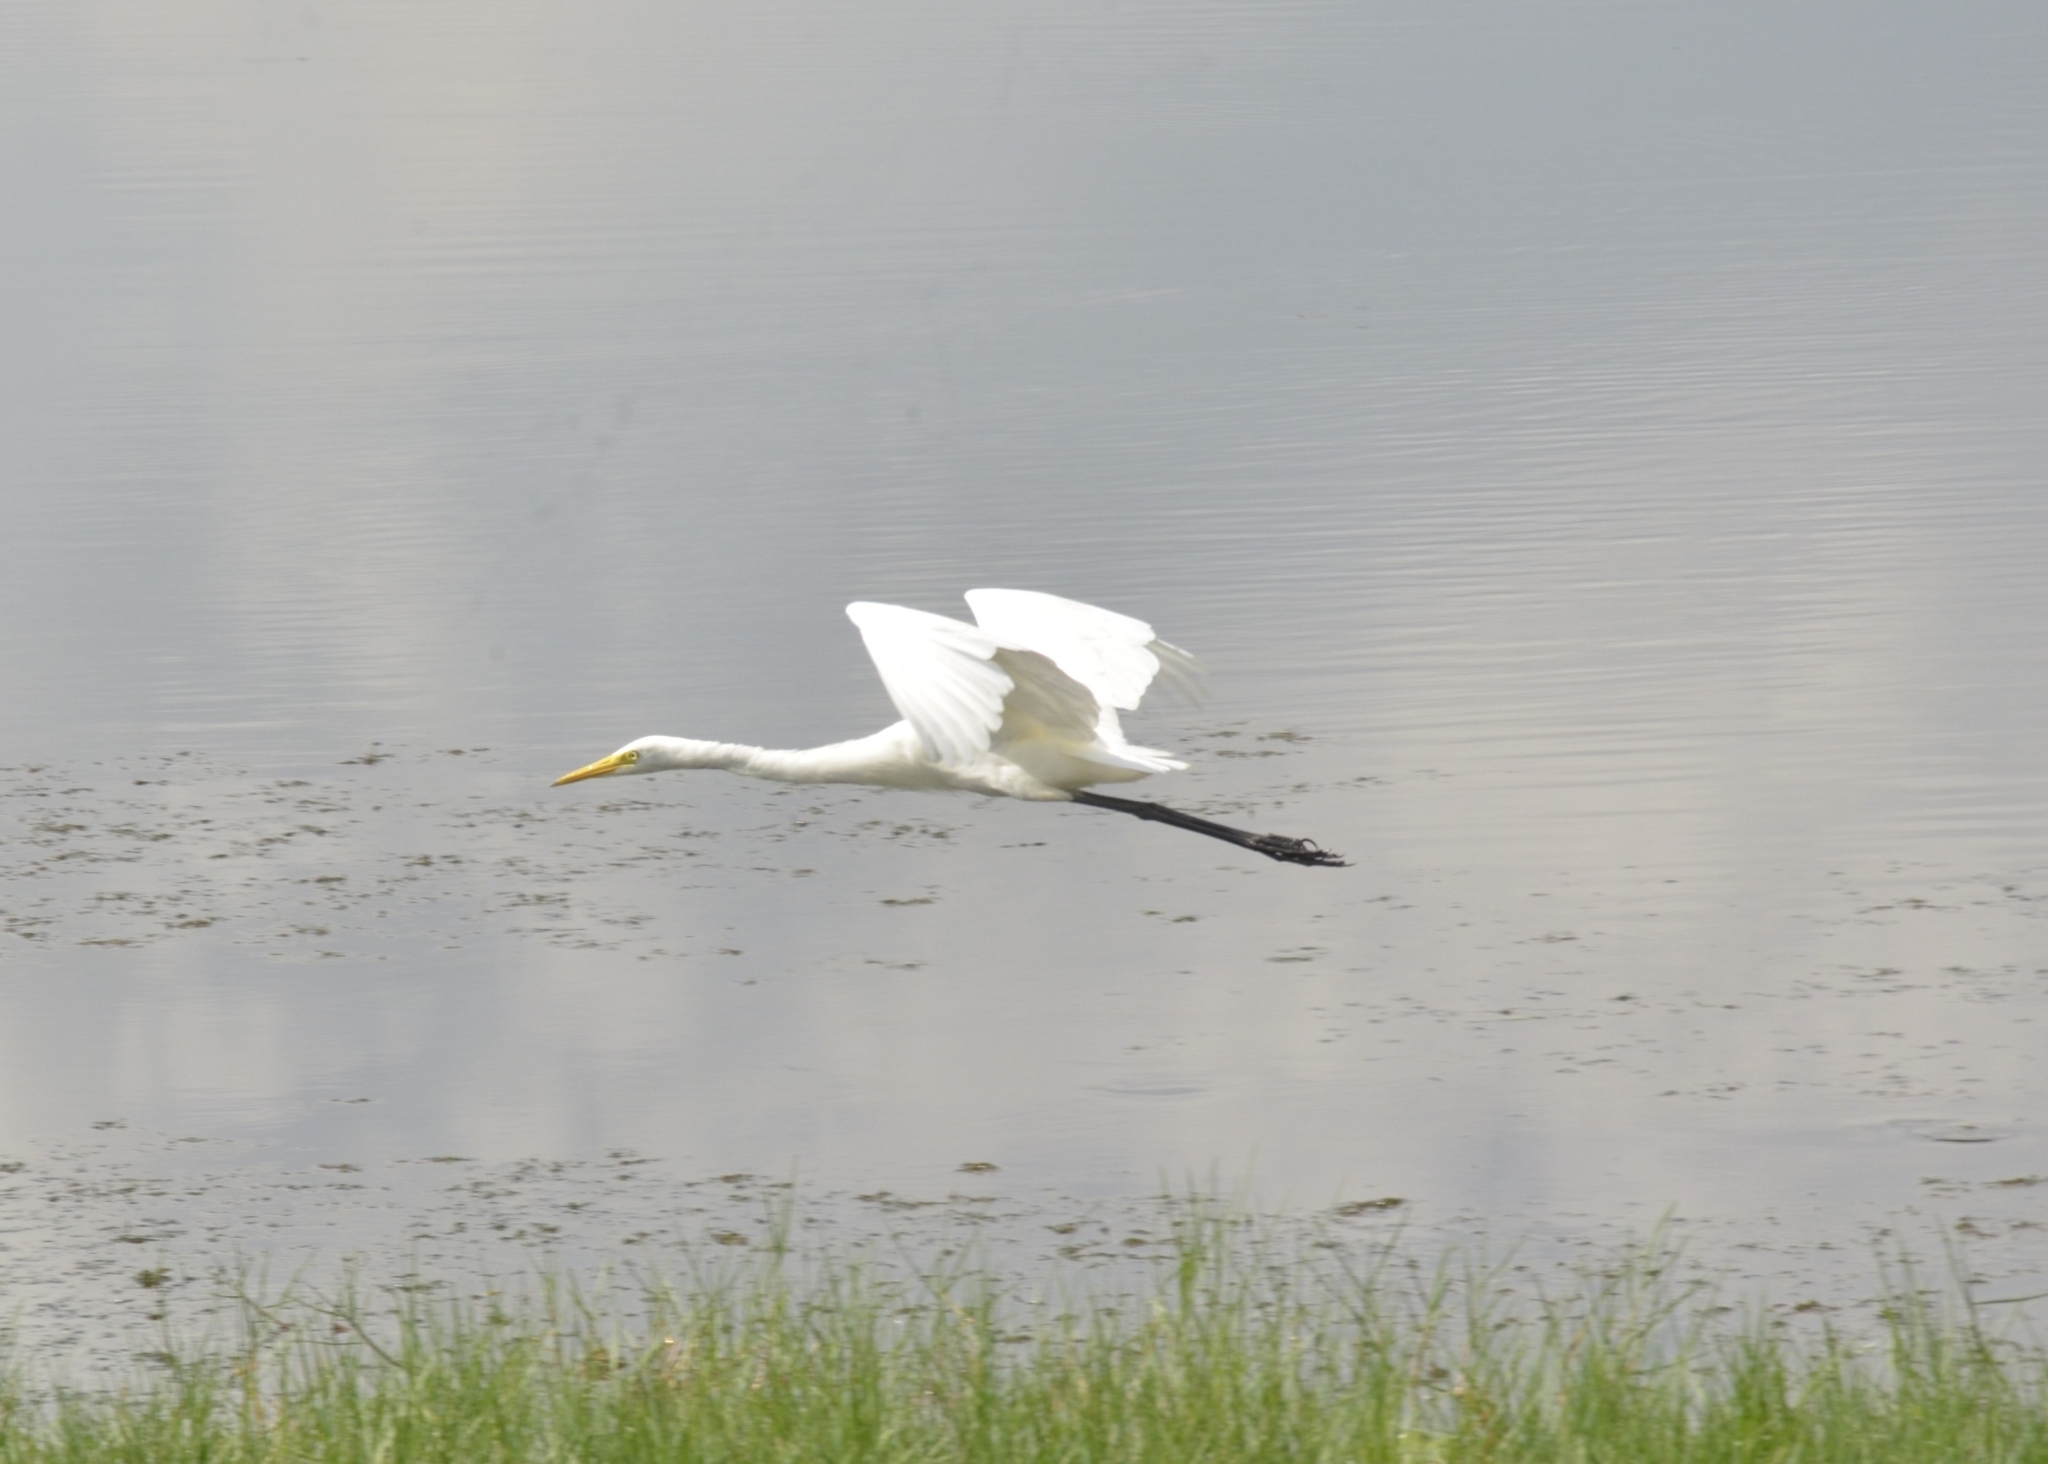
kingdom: Animalia
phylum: Chordata
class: Aves
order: Pelecaniformes
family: Ardeidae
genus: Egretta
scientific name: Egretta intermedia
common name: Intermediate egret
